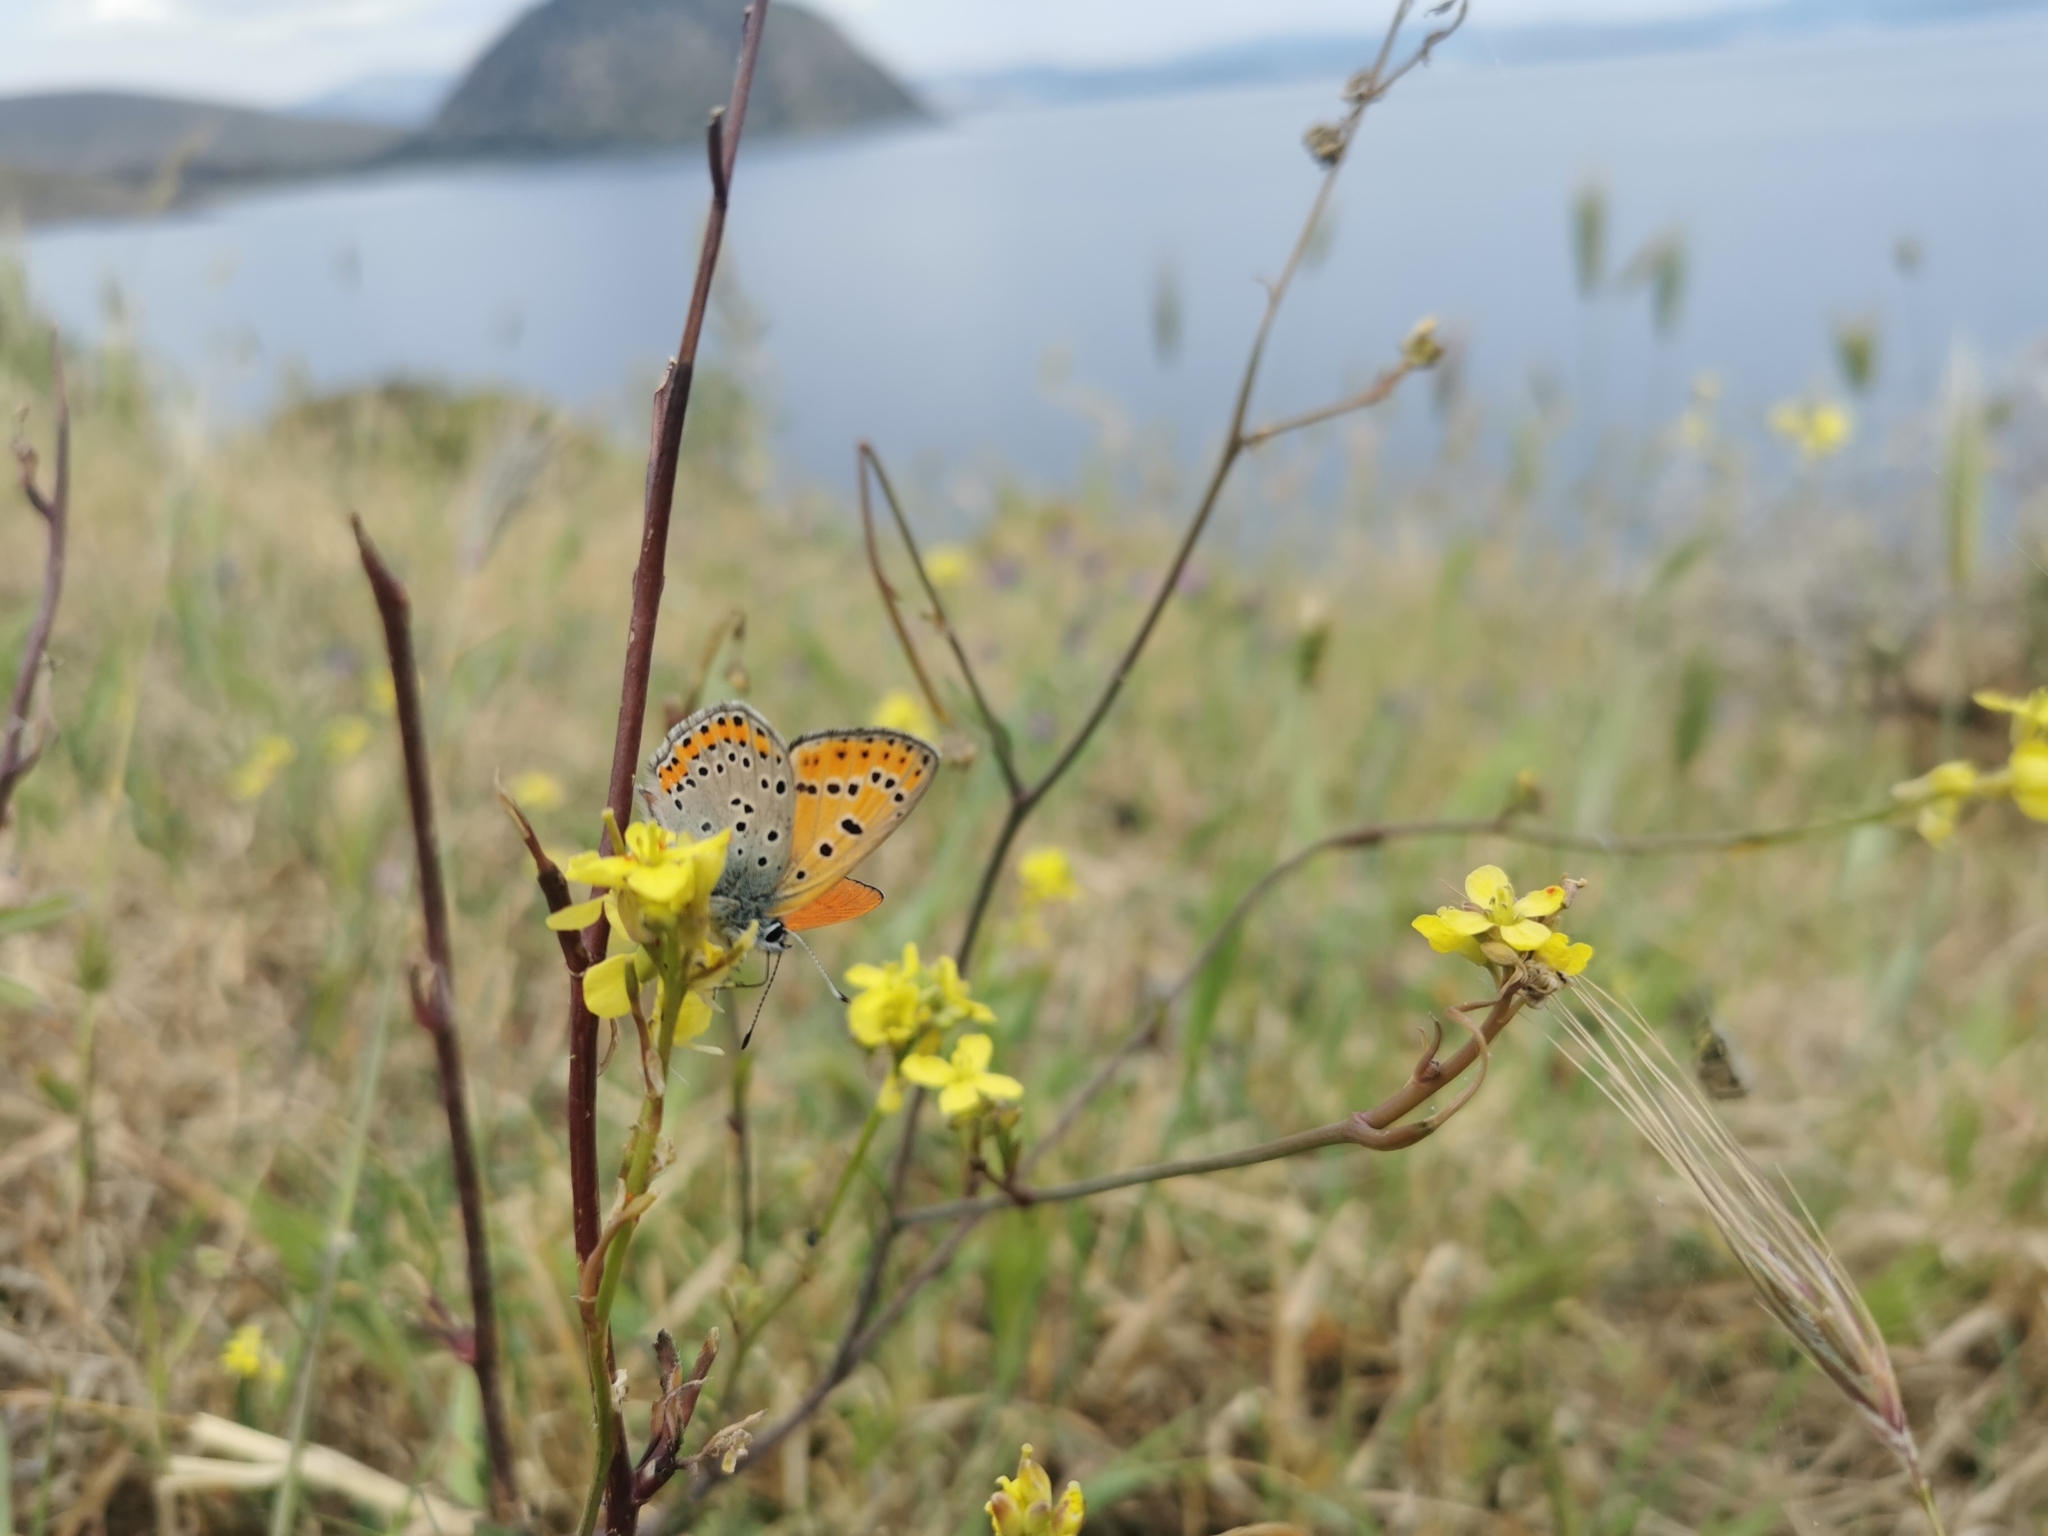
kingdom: Animalia
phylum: Arthropoda
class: Insecta
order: Lepidoptera
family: Lycaenidae
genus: Thersamonia
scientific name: Thersamonia thersamon
